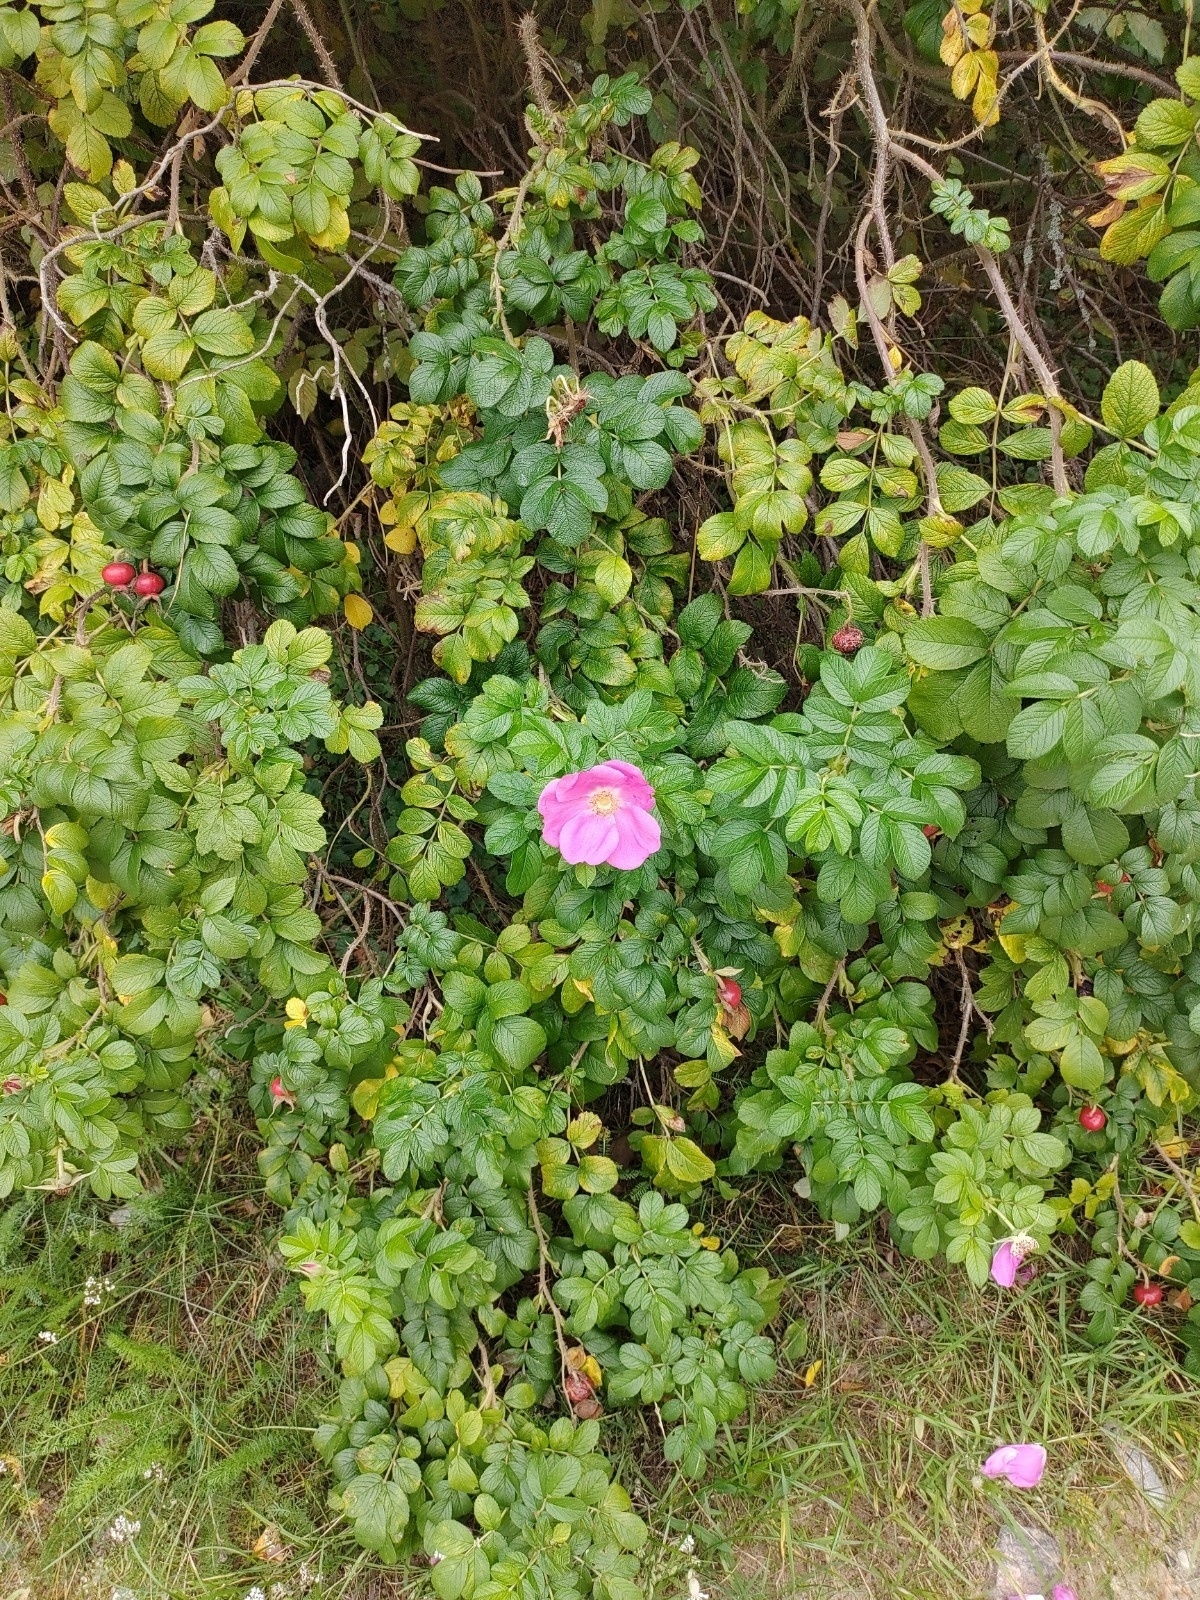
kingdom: Plantae
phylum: Tracheophyta
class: Magnoliopsida
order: Rosales
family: Rosaceae
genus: Rosa
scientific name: Rosa rugosa
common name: Japanese rose
